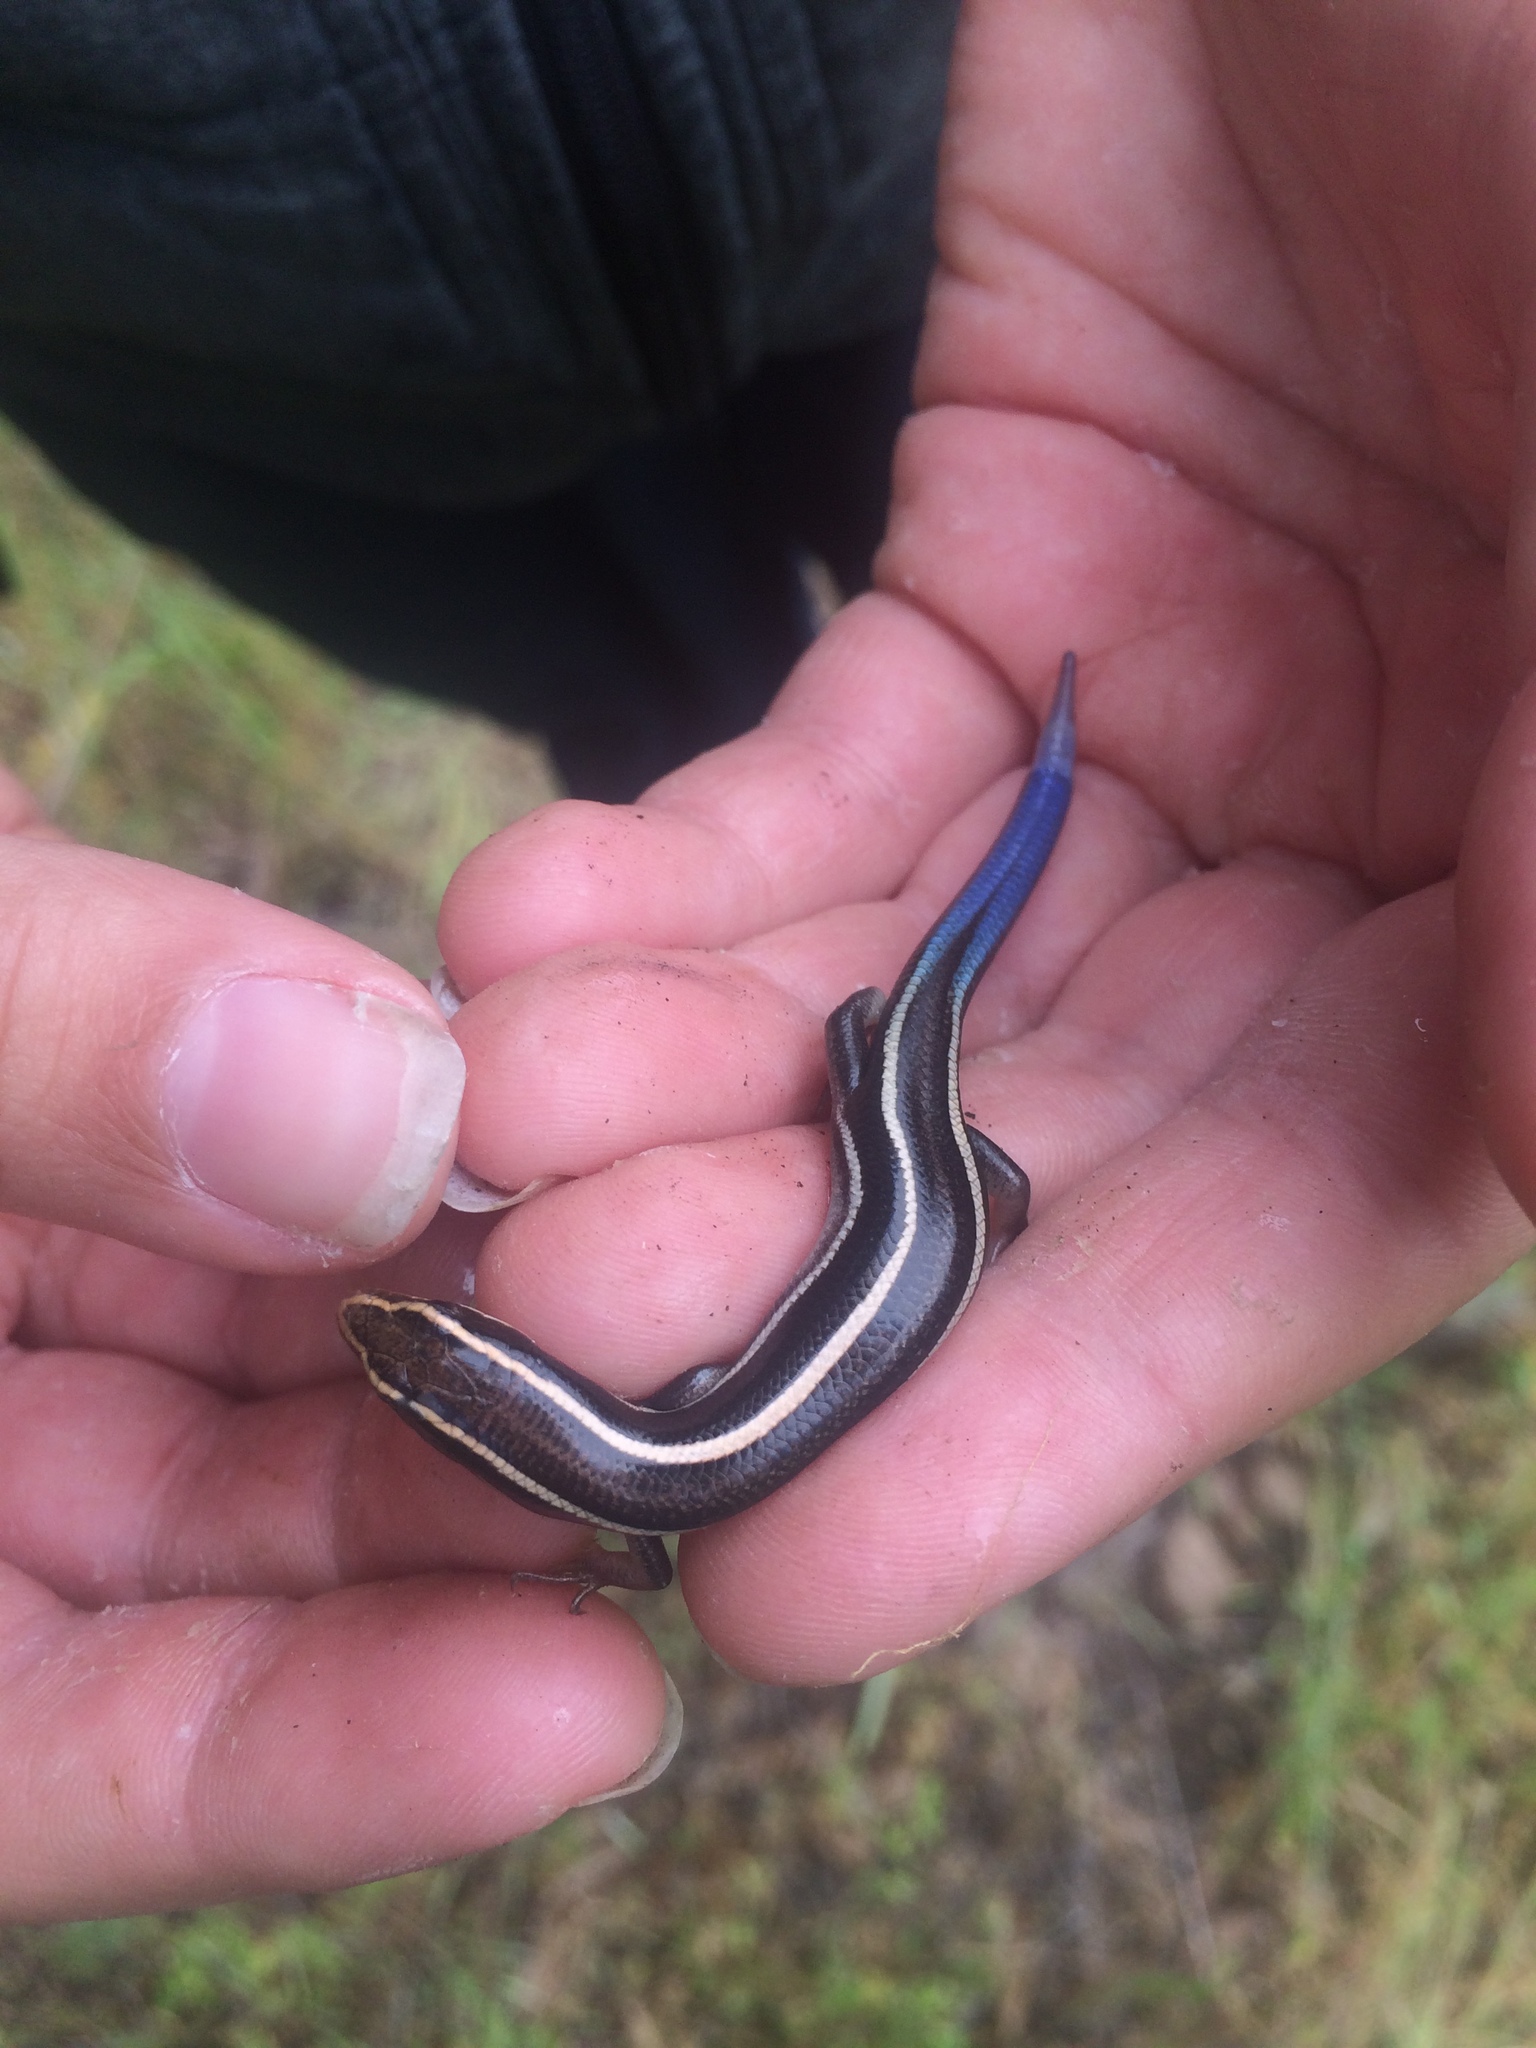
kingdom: Animalia
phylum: Chordata
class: Squamata
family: Scincidae
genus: Plestiodon
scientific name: Plestiodon skiltonianus
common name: Coronado island skink [interparietalis]
